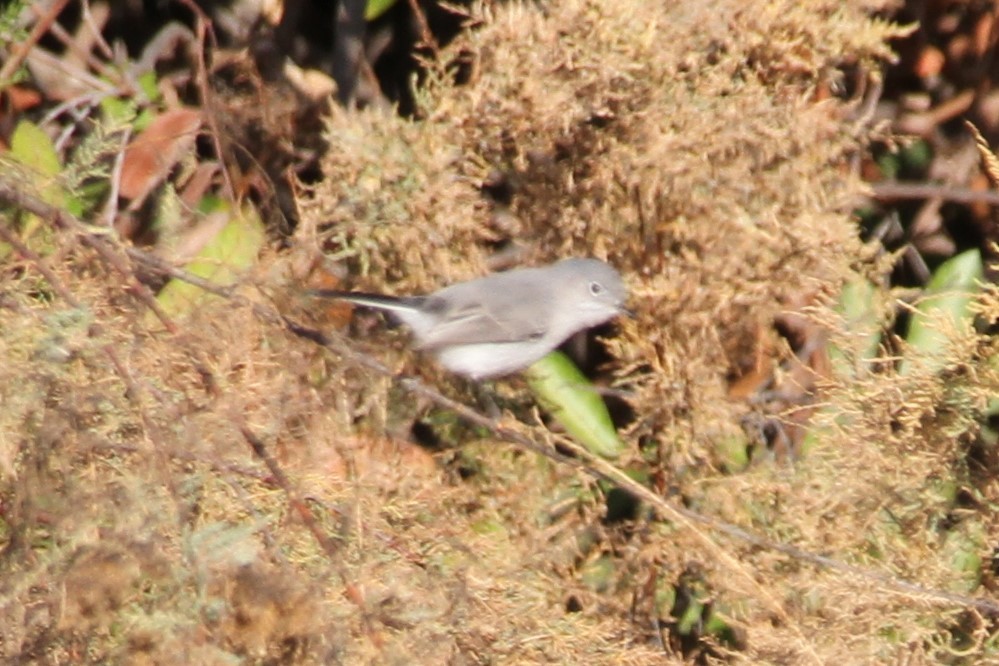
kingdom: Animalia
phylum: Chordata
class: Aves
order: Passeriformes
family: Polioptilidae
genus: Polioptila
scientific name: Polioptila caerulea
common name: Blue-gray gnatcatcher
